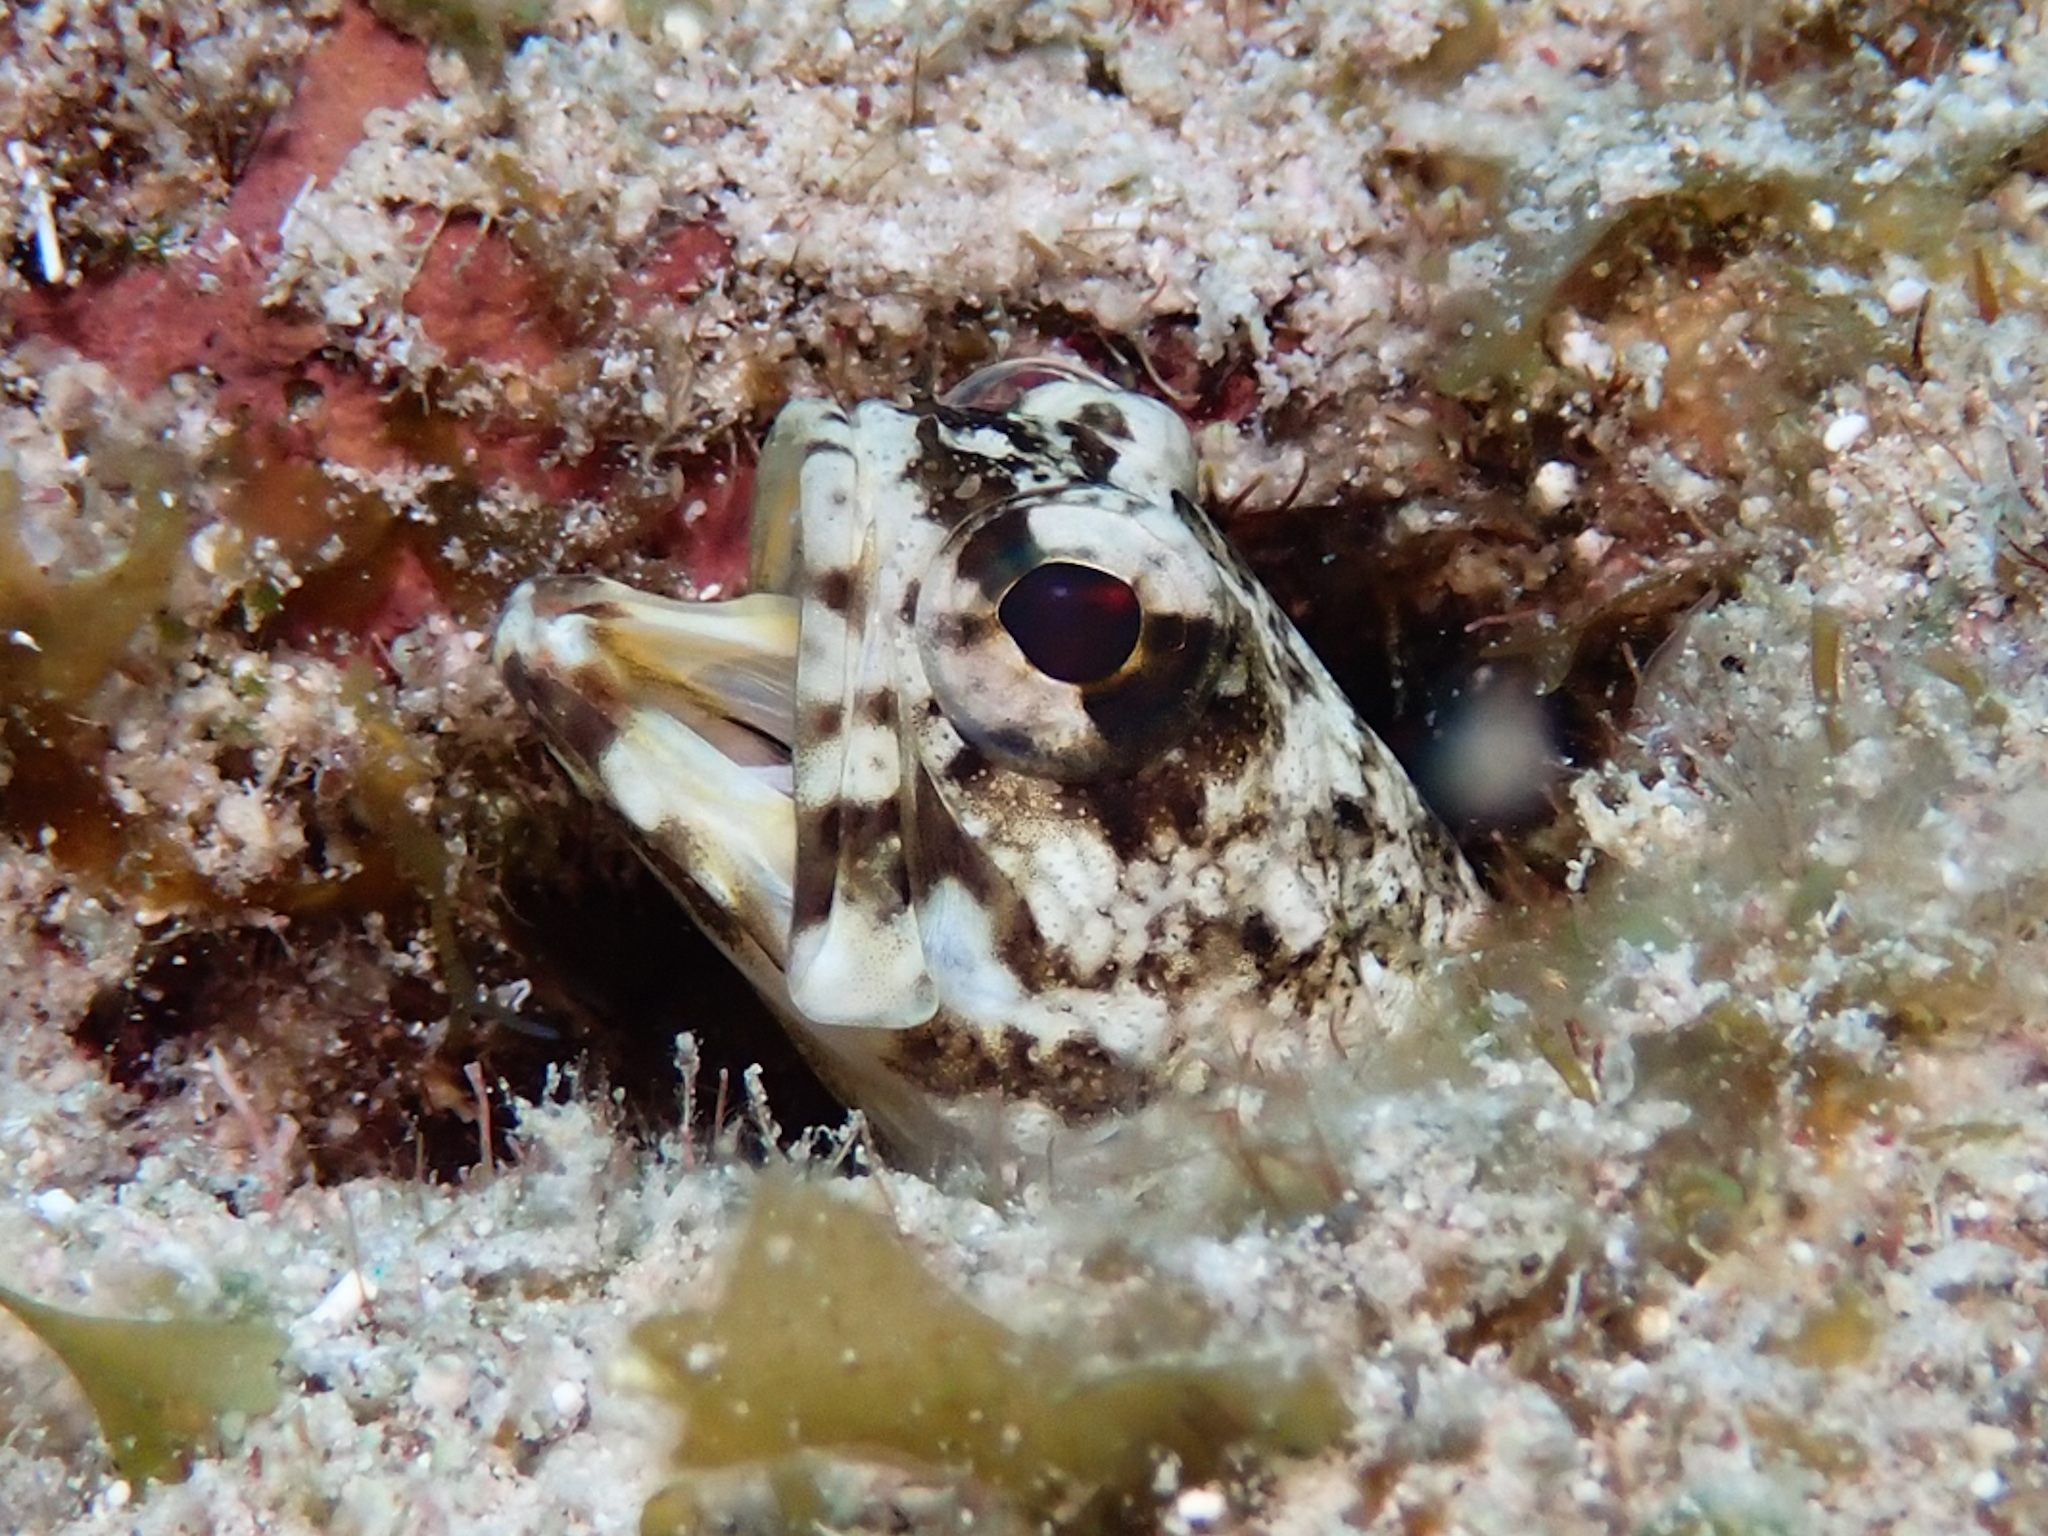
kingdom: Animalia
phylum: Chordata
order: Perciformes
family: Opistognathidae
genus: Opistognathus
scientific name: Opistognathus maxillosus
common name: Mottled jawfish
